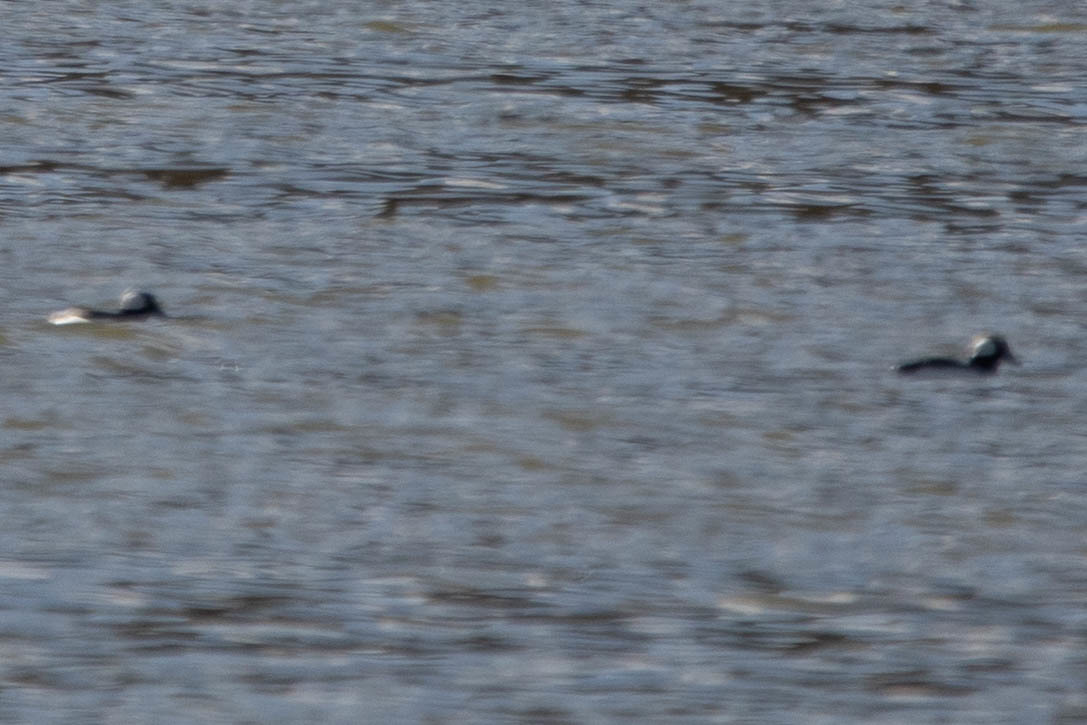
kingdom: Animalia
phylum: Chordata
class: Aves
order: Anseriformes
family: Anatidae
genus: Bucephala
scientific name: Bucephala albeola
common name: Bufflehead
